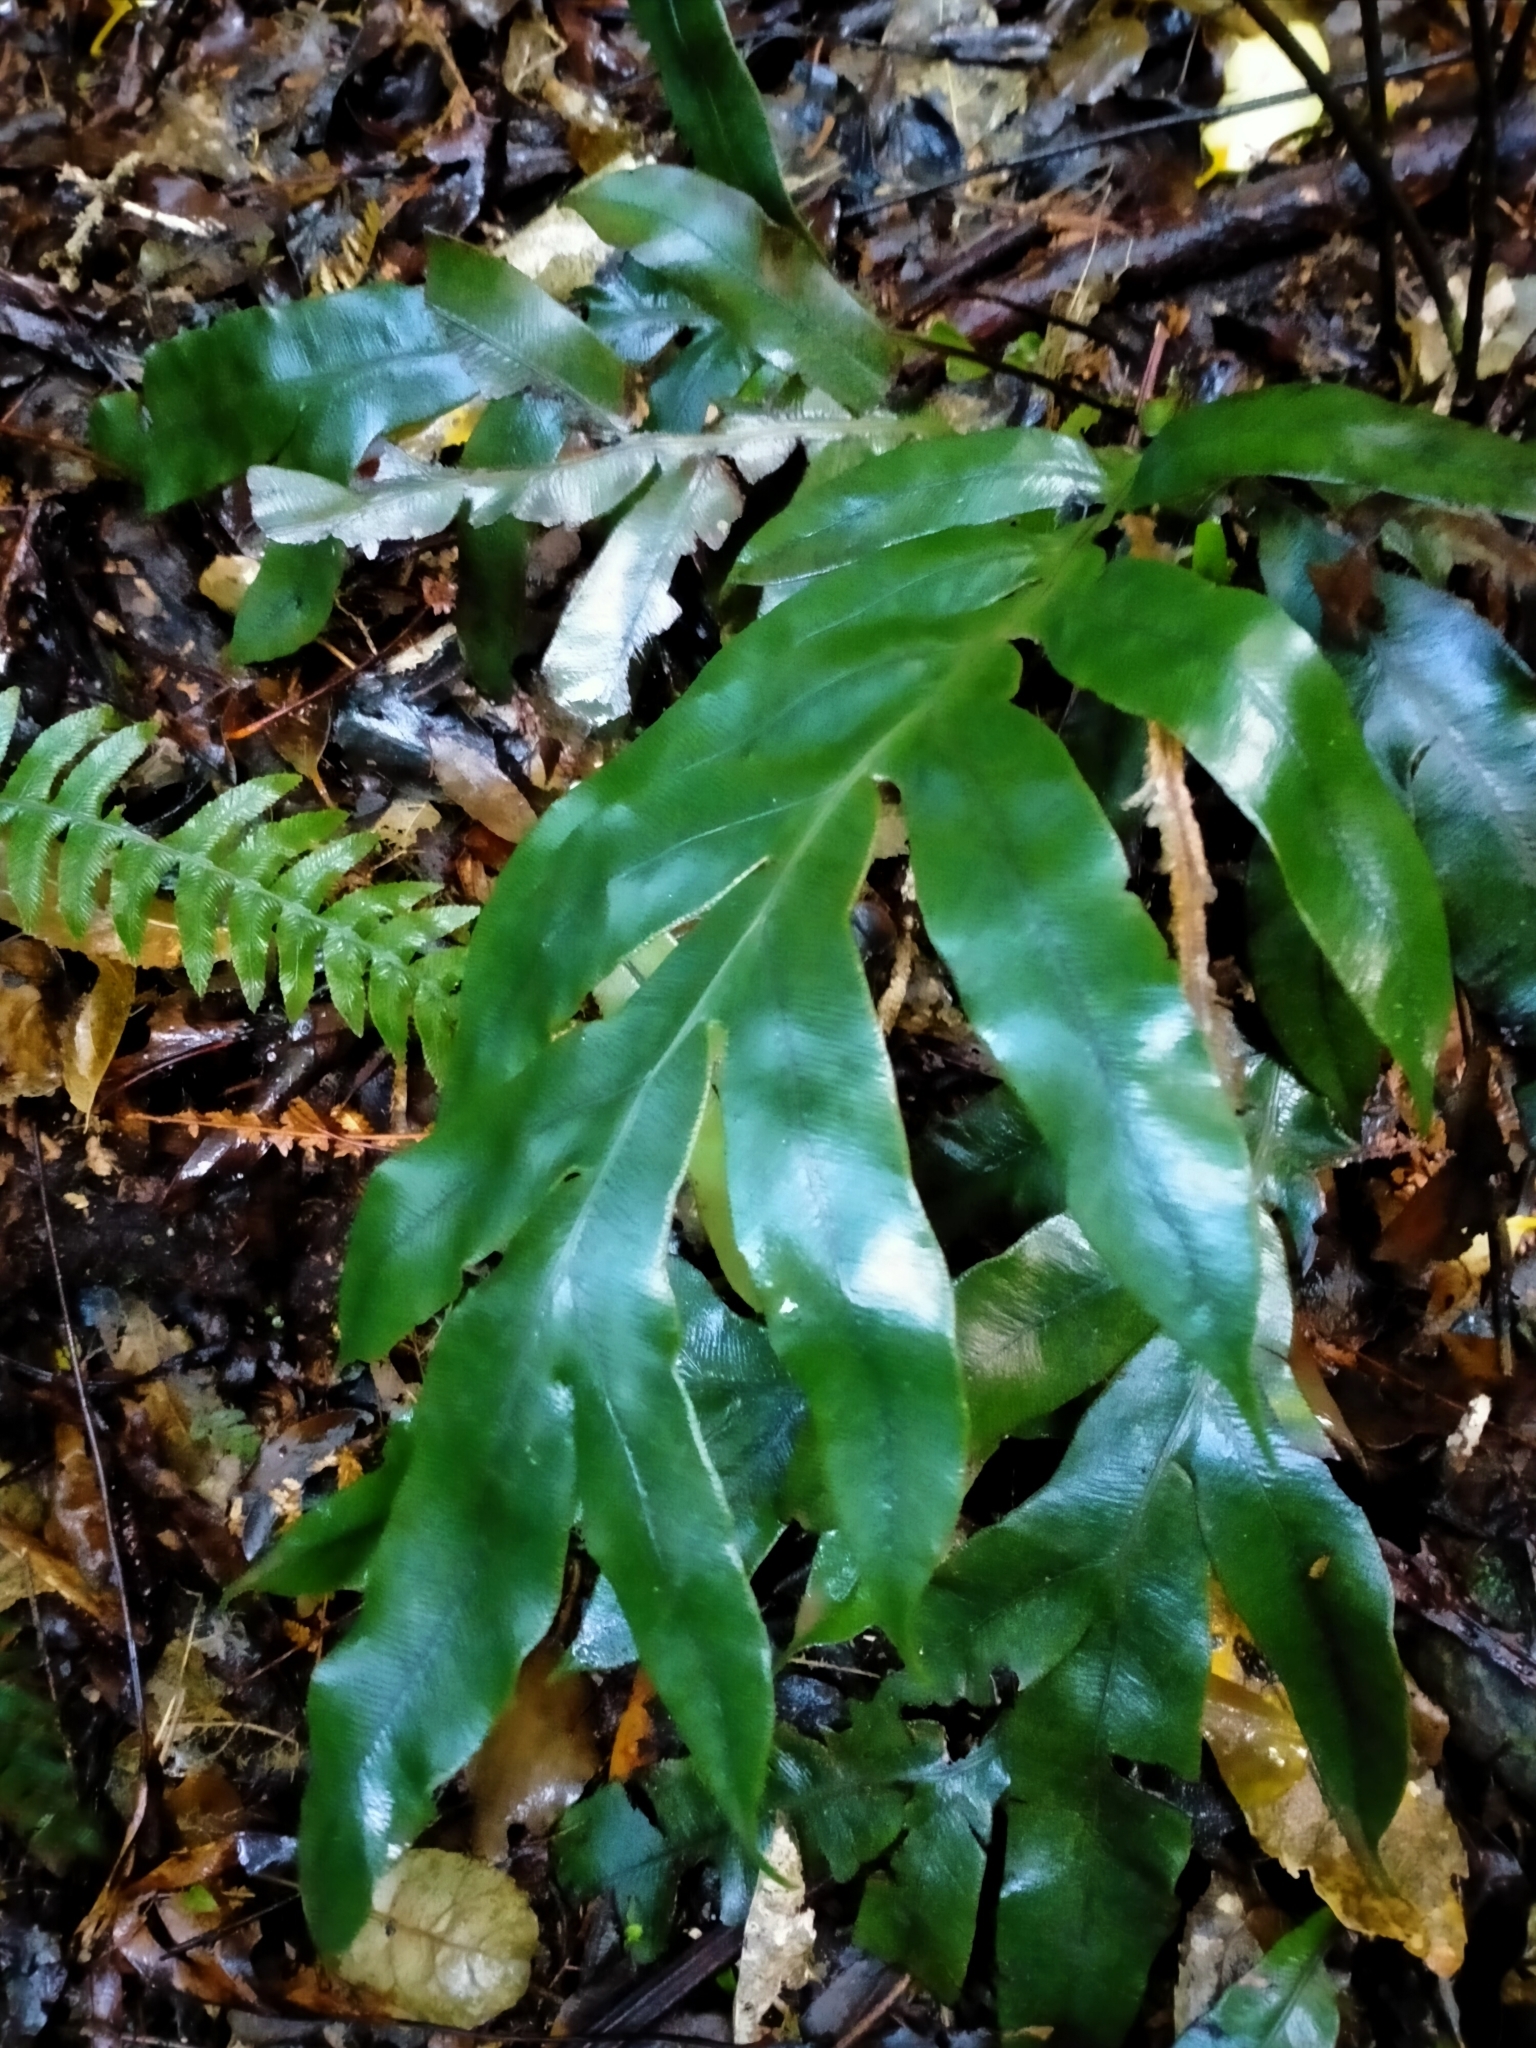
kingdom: Plantae
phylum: Tracheophyta
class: Polypodiopsida
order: Polypodiales
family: Blechnaceae
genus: Austroblechnum
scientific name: Austroblechnum colensoi
